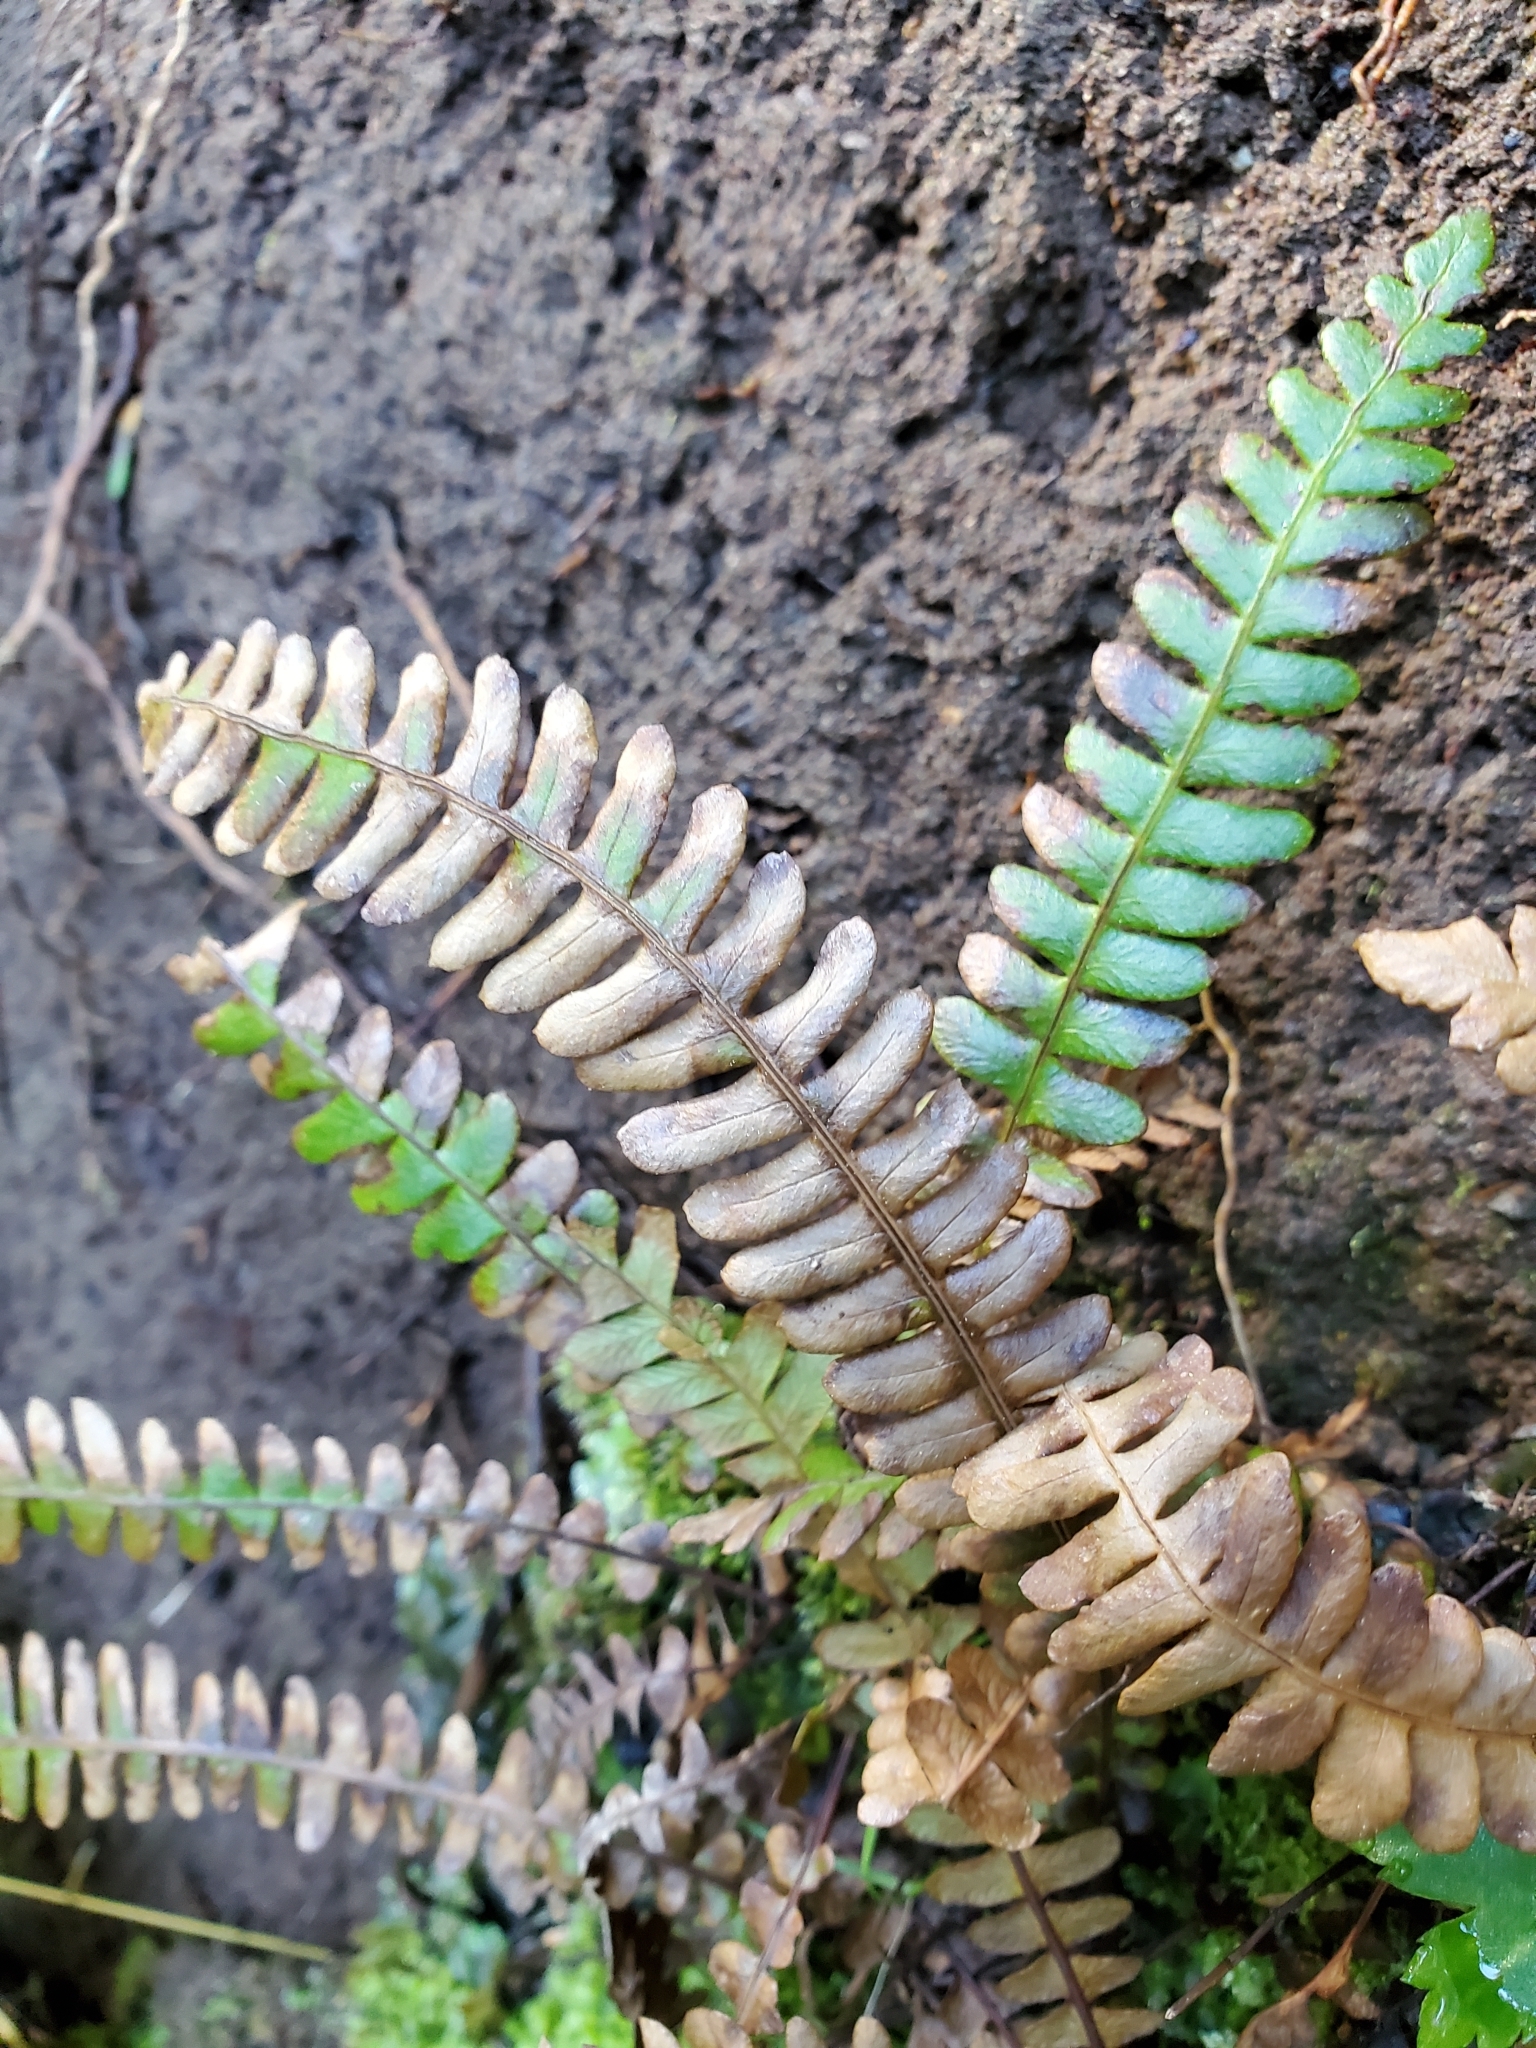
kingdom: Plantae
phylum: Tracheophyta
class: Polypodiopsida
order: Polypodiales
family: Blechnaceae
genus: Struthiopteris
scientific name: Struthiopteris spicant
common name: Deer fern
